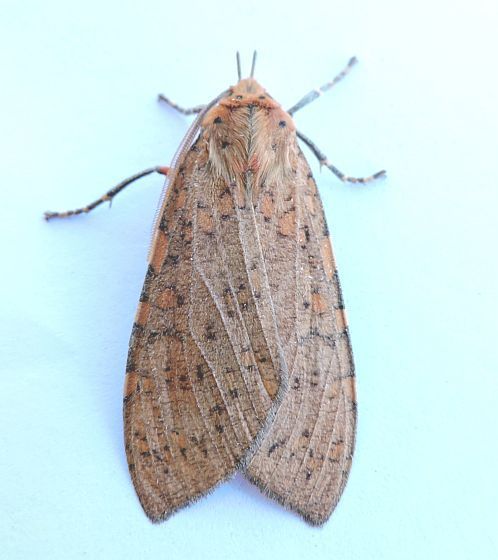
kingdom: Animalia
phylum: Arthropoda
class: Insecta
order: Lepidoptera
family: Erebidae
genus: Apocrisias
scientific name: Apocrisias thaumasta
